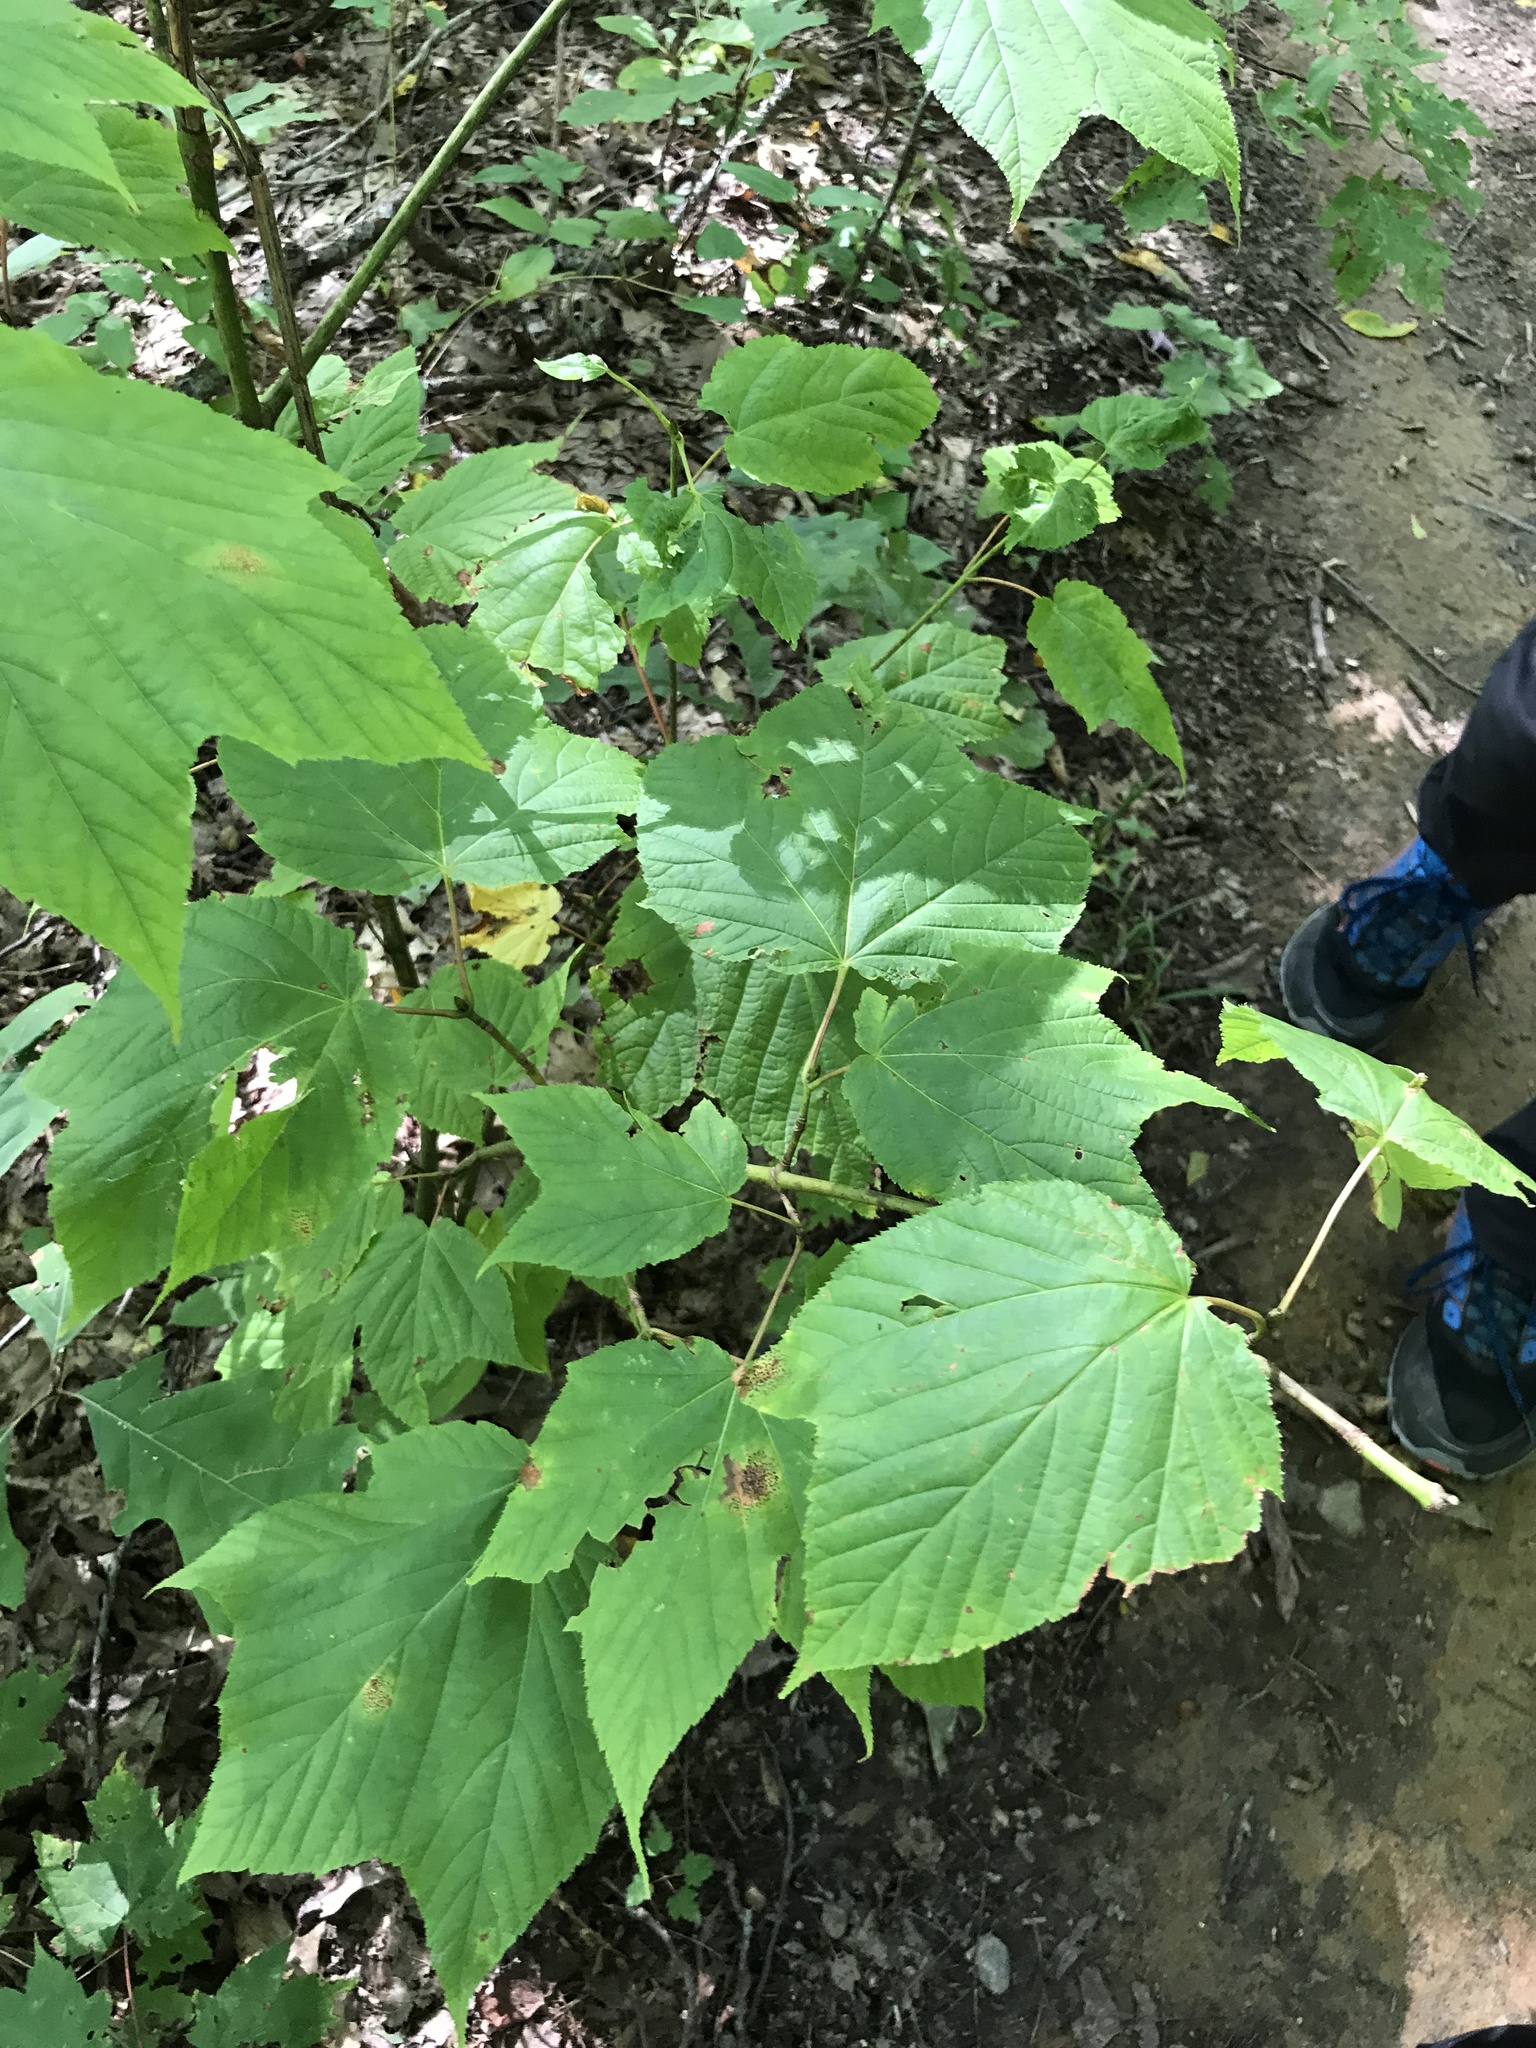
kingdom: Plantae
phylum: Tracheophyta
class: Magnoliopsida
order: Sapindales
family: Sapindaceae
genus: Acer
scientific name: Acer pensylvanicum
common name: Moosewood
